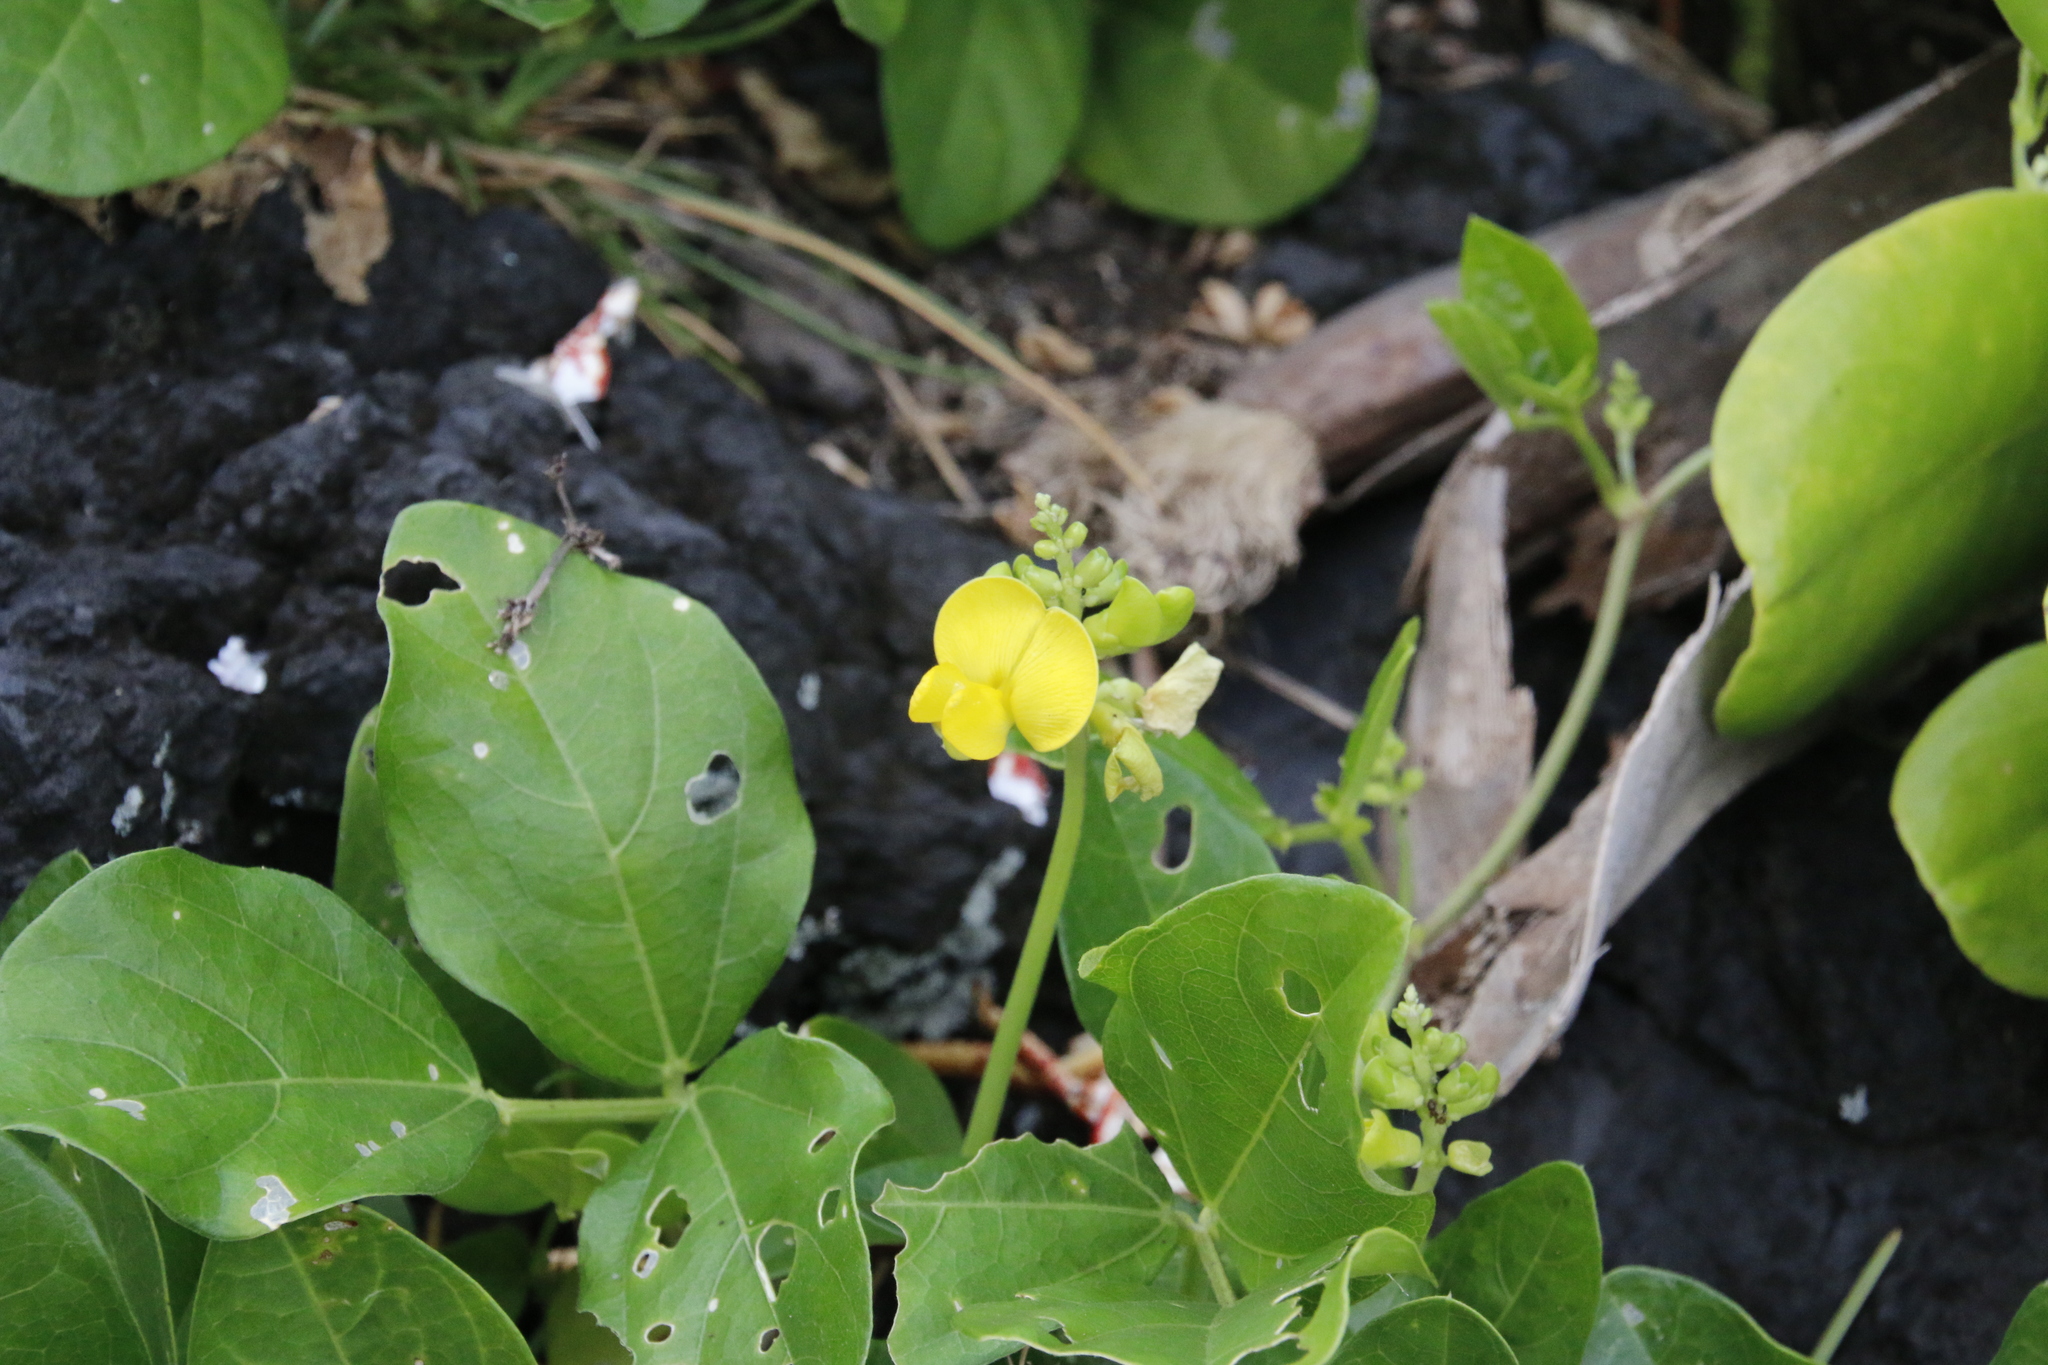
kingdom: Plantae
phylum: Tracheophyta
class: Magnoliopsida
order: Fabales
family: Fabaceae
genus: Vigna
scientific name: Vigna marina
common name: Dune-bean
